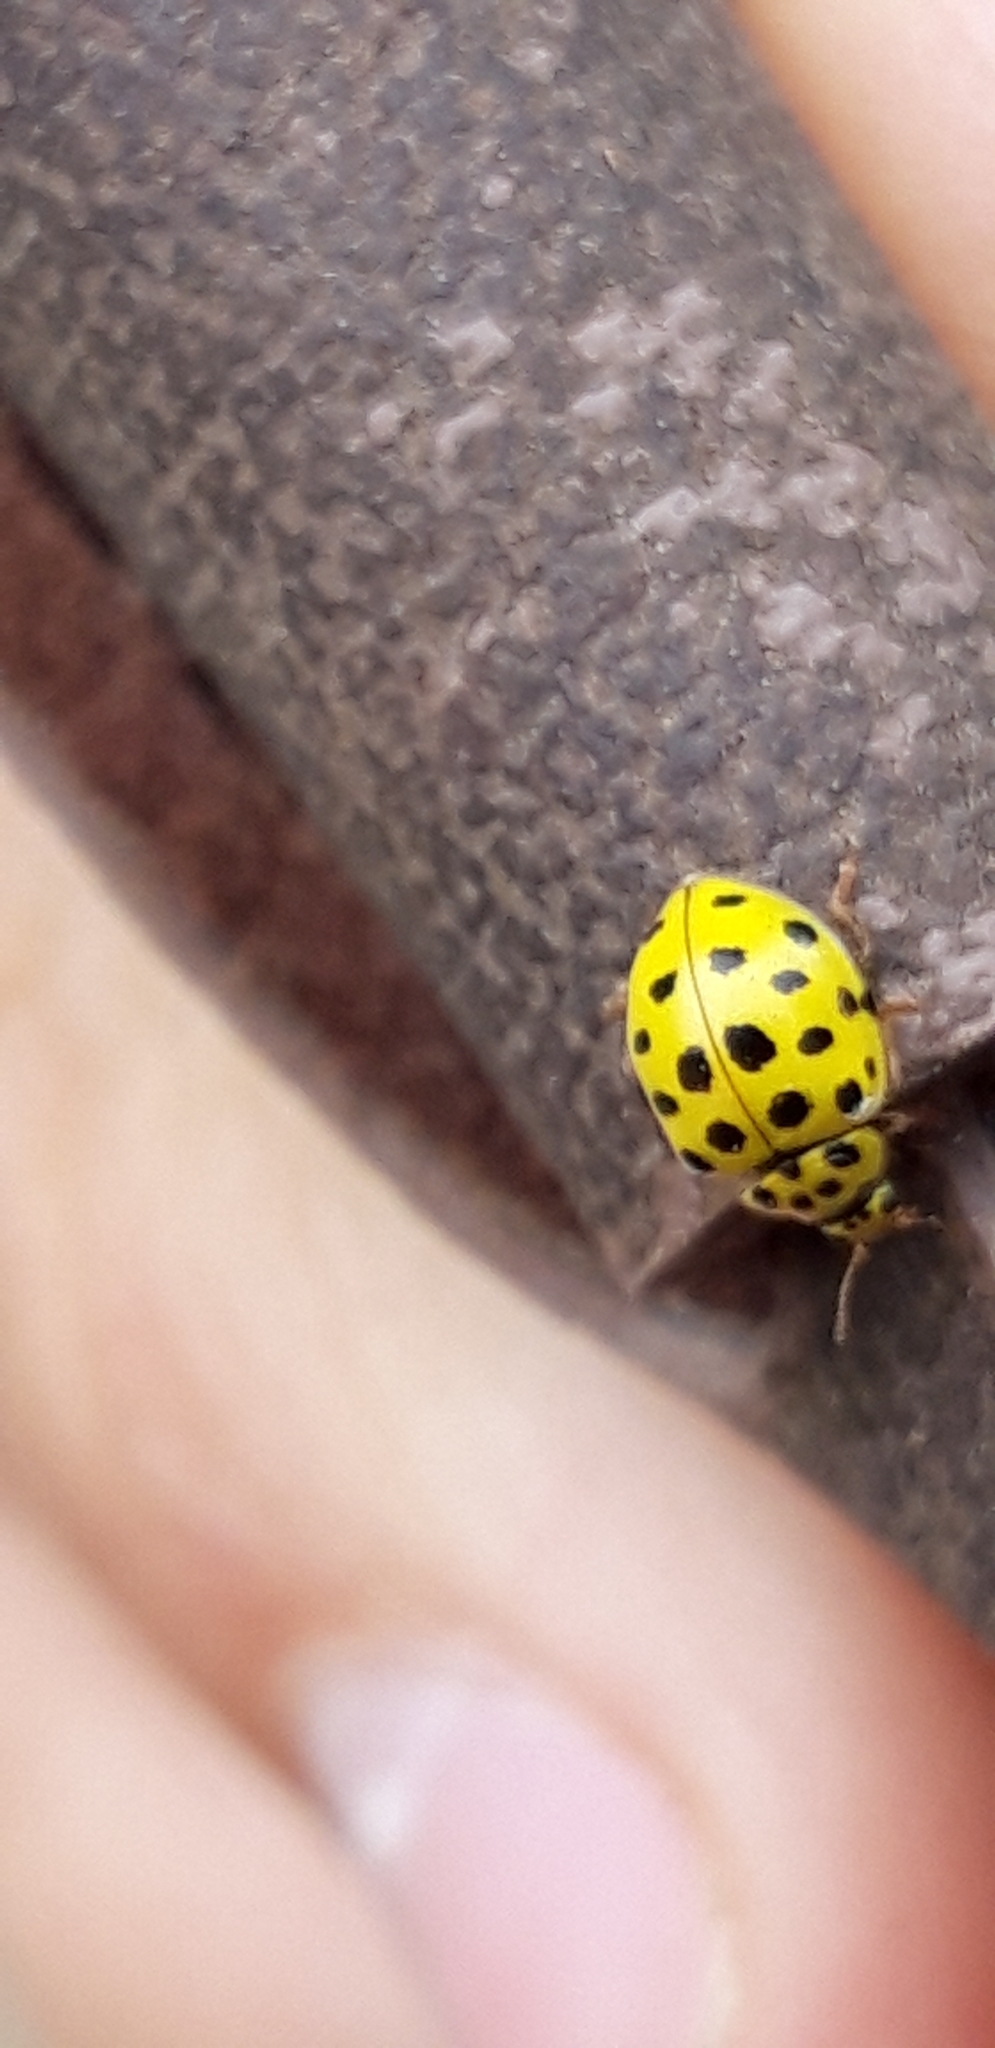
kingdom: Animalia
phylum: Arthropoda
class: Insecta
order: Coleoptera
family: Coccinellidae
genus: Psyllobora
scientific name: Psyllobora vigintiduopunctata
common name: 22-spot ladybird
